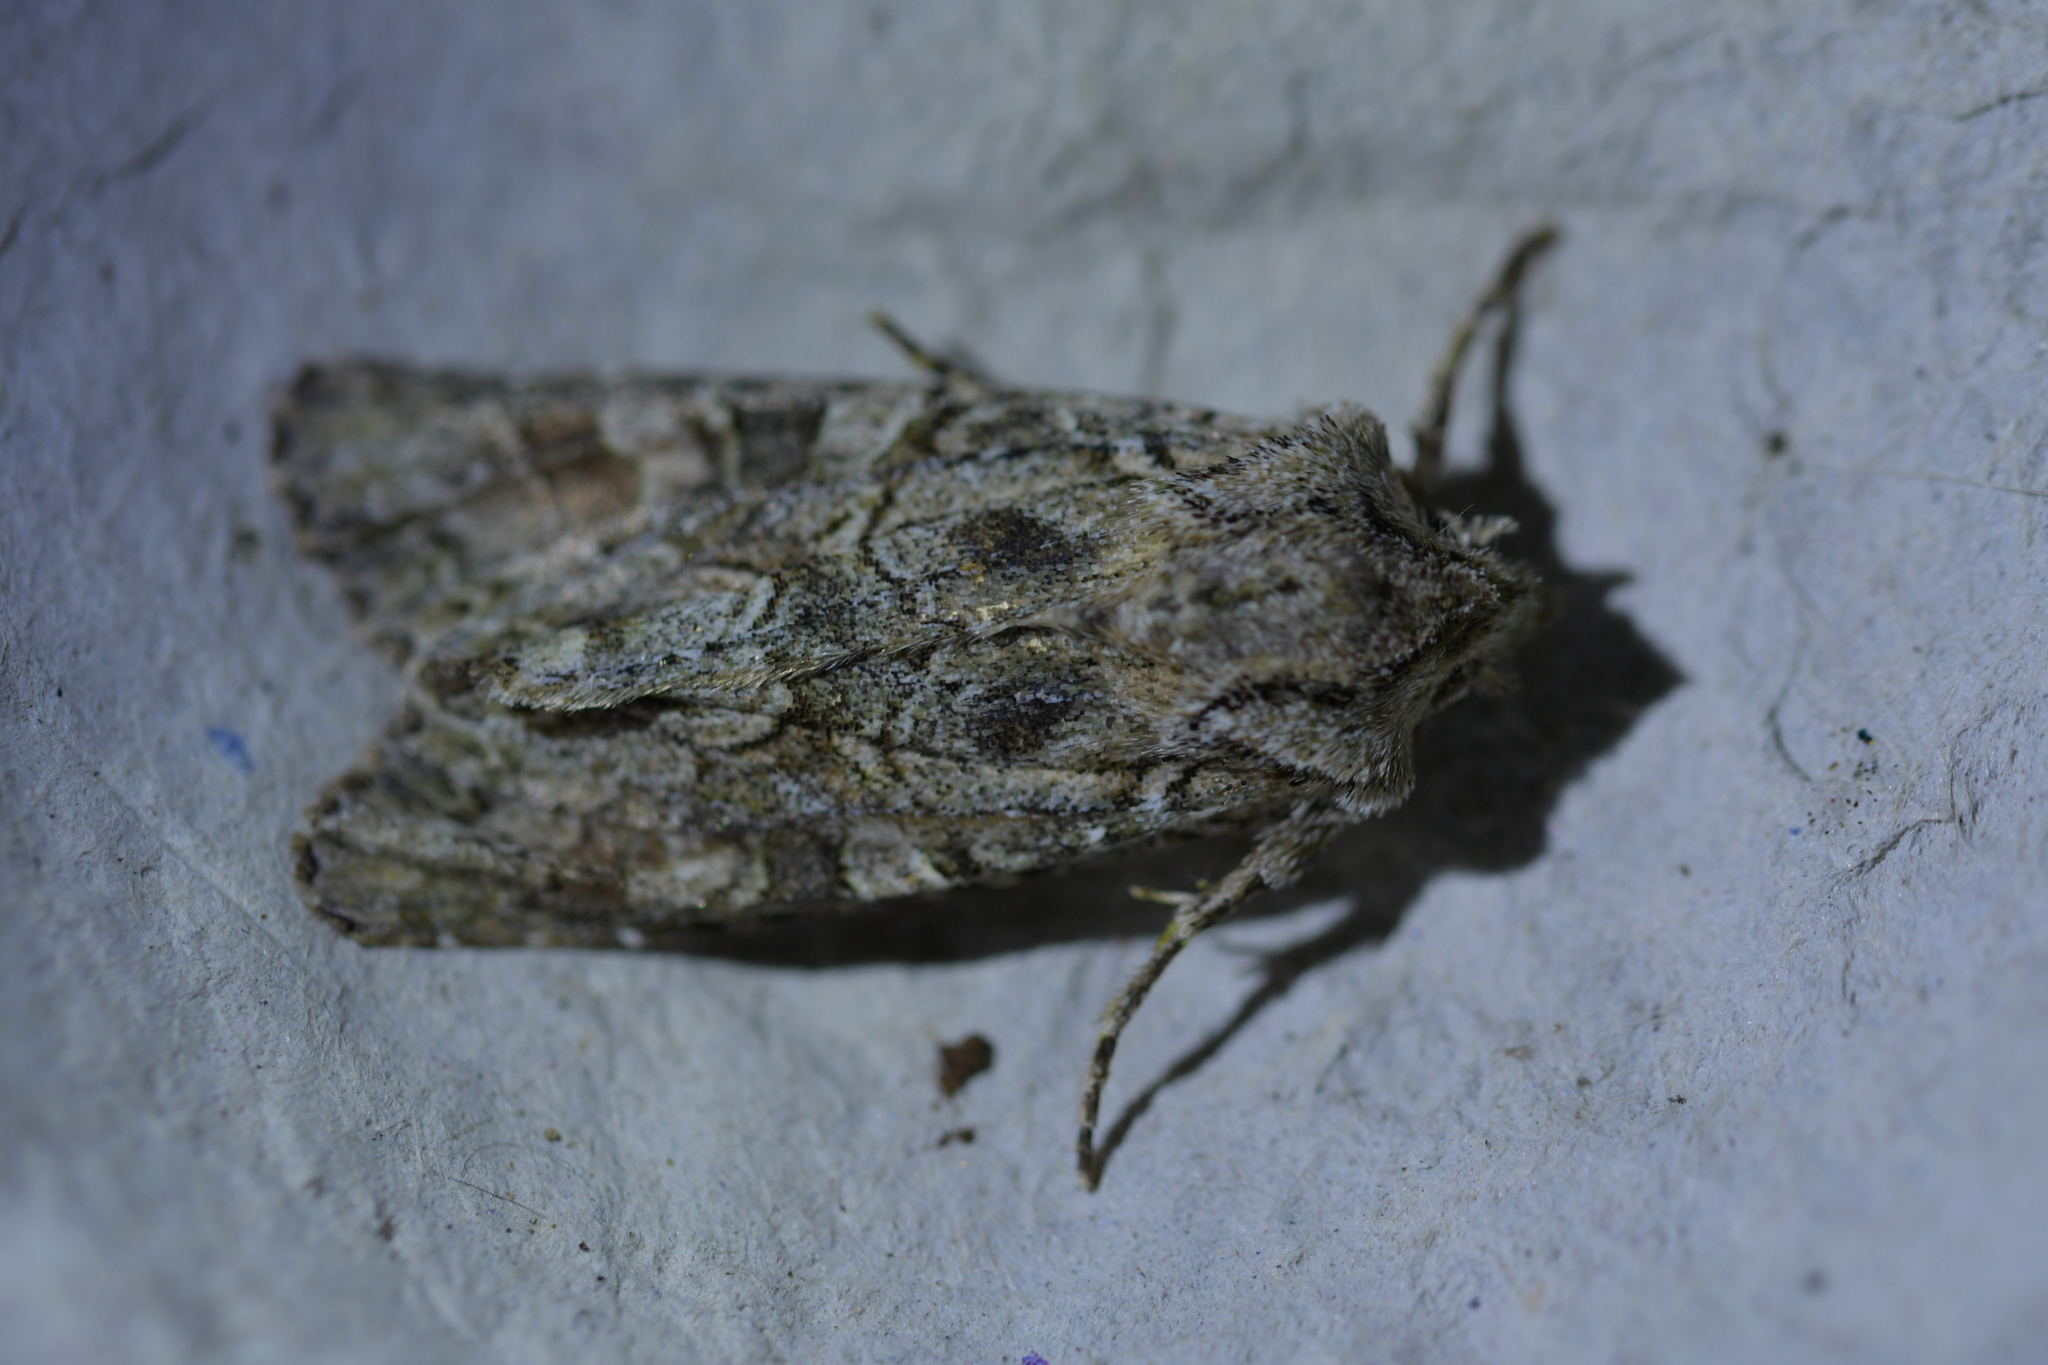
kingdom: Animalia
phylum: Arthropoda
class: Insecta
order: Lepidoptera
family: Noctuidae
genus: Ichneutica
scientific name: Ichneutica mutans
